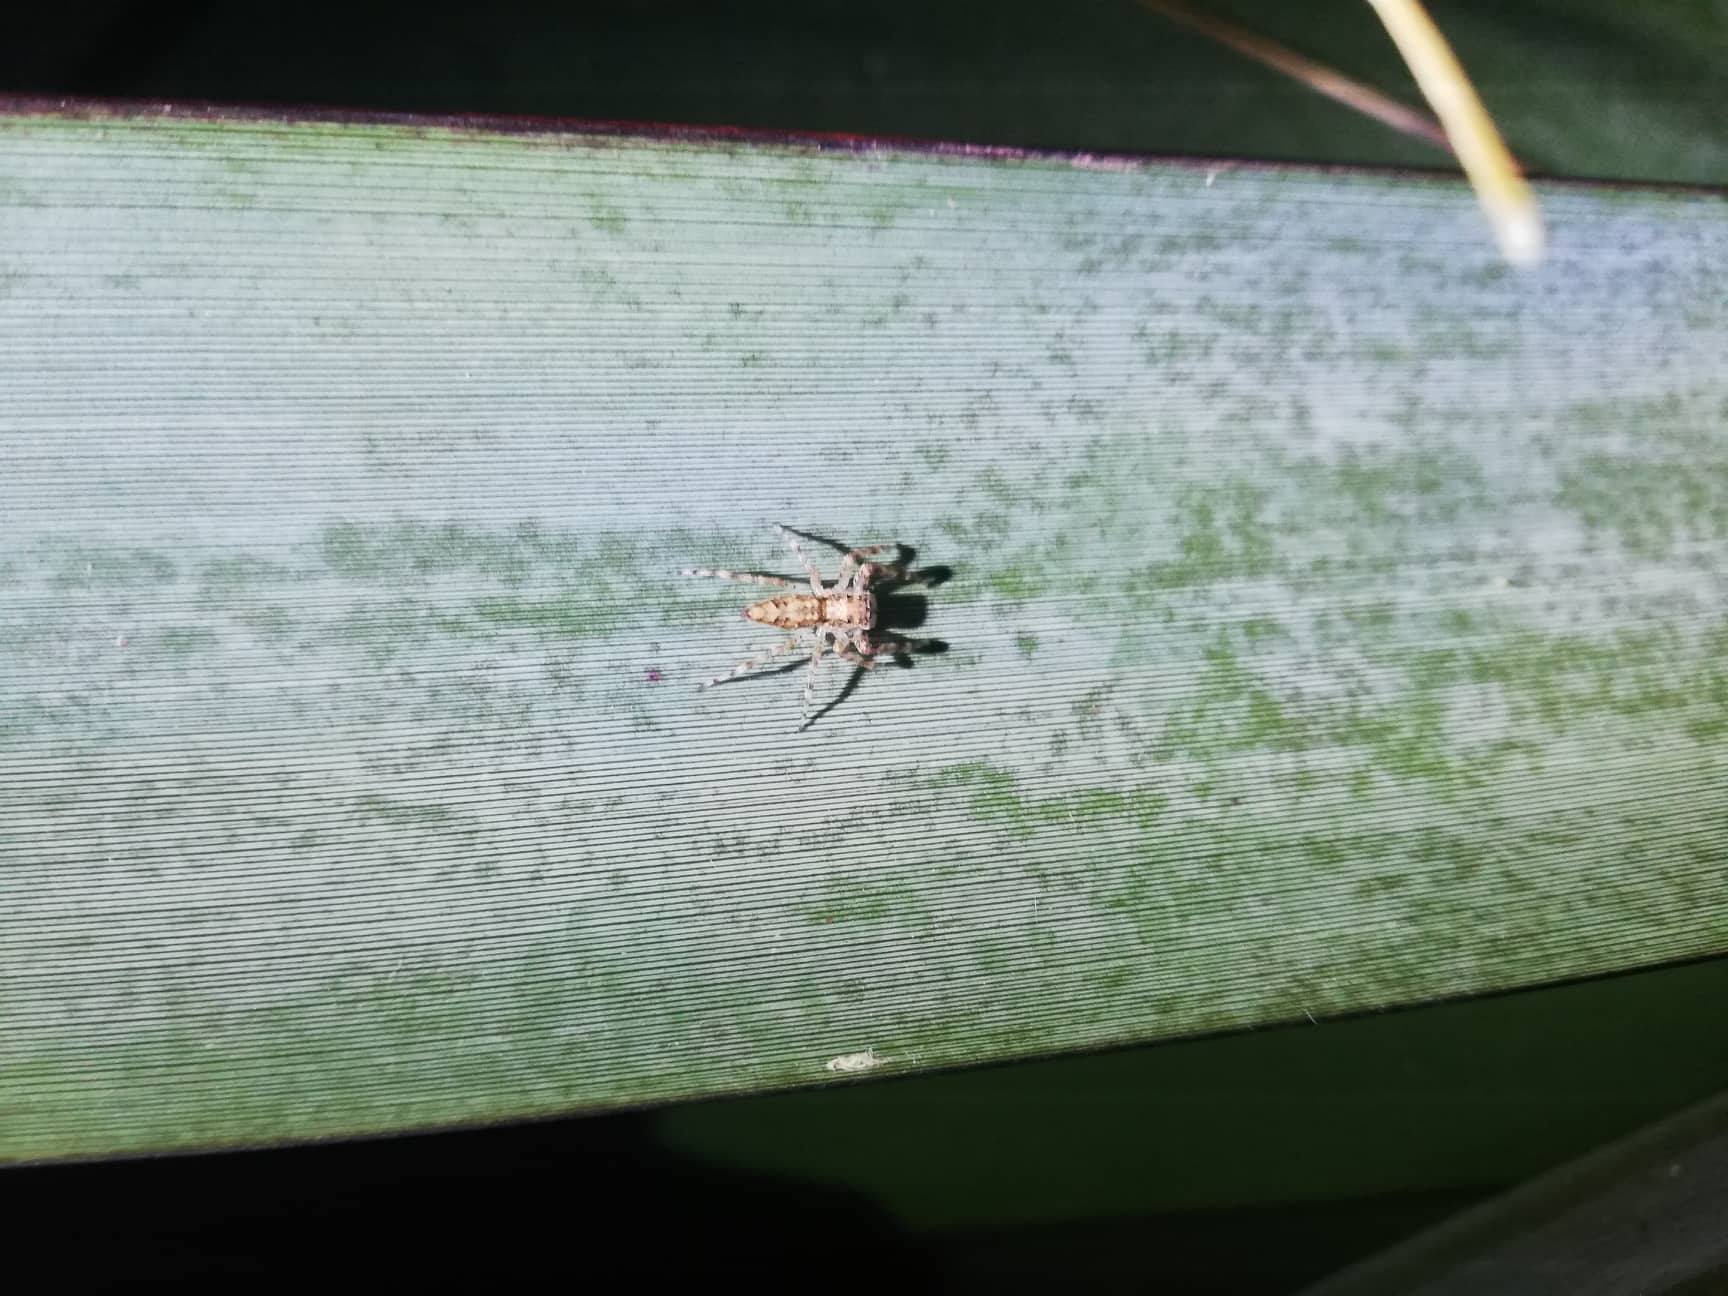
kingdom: Animalia
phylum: Arthropoda
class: Arachnida
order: Araneae
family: Salticidae
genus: Helpis
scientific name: Helpis minitabunda
